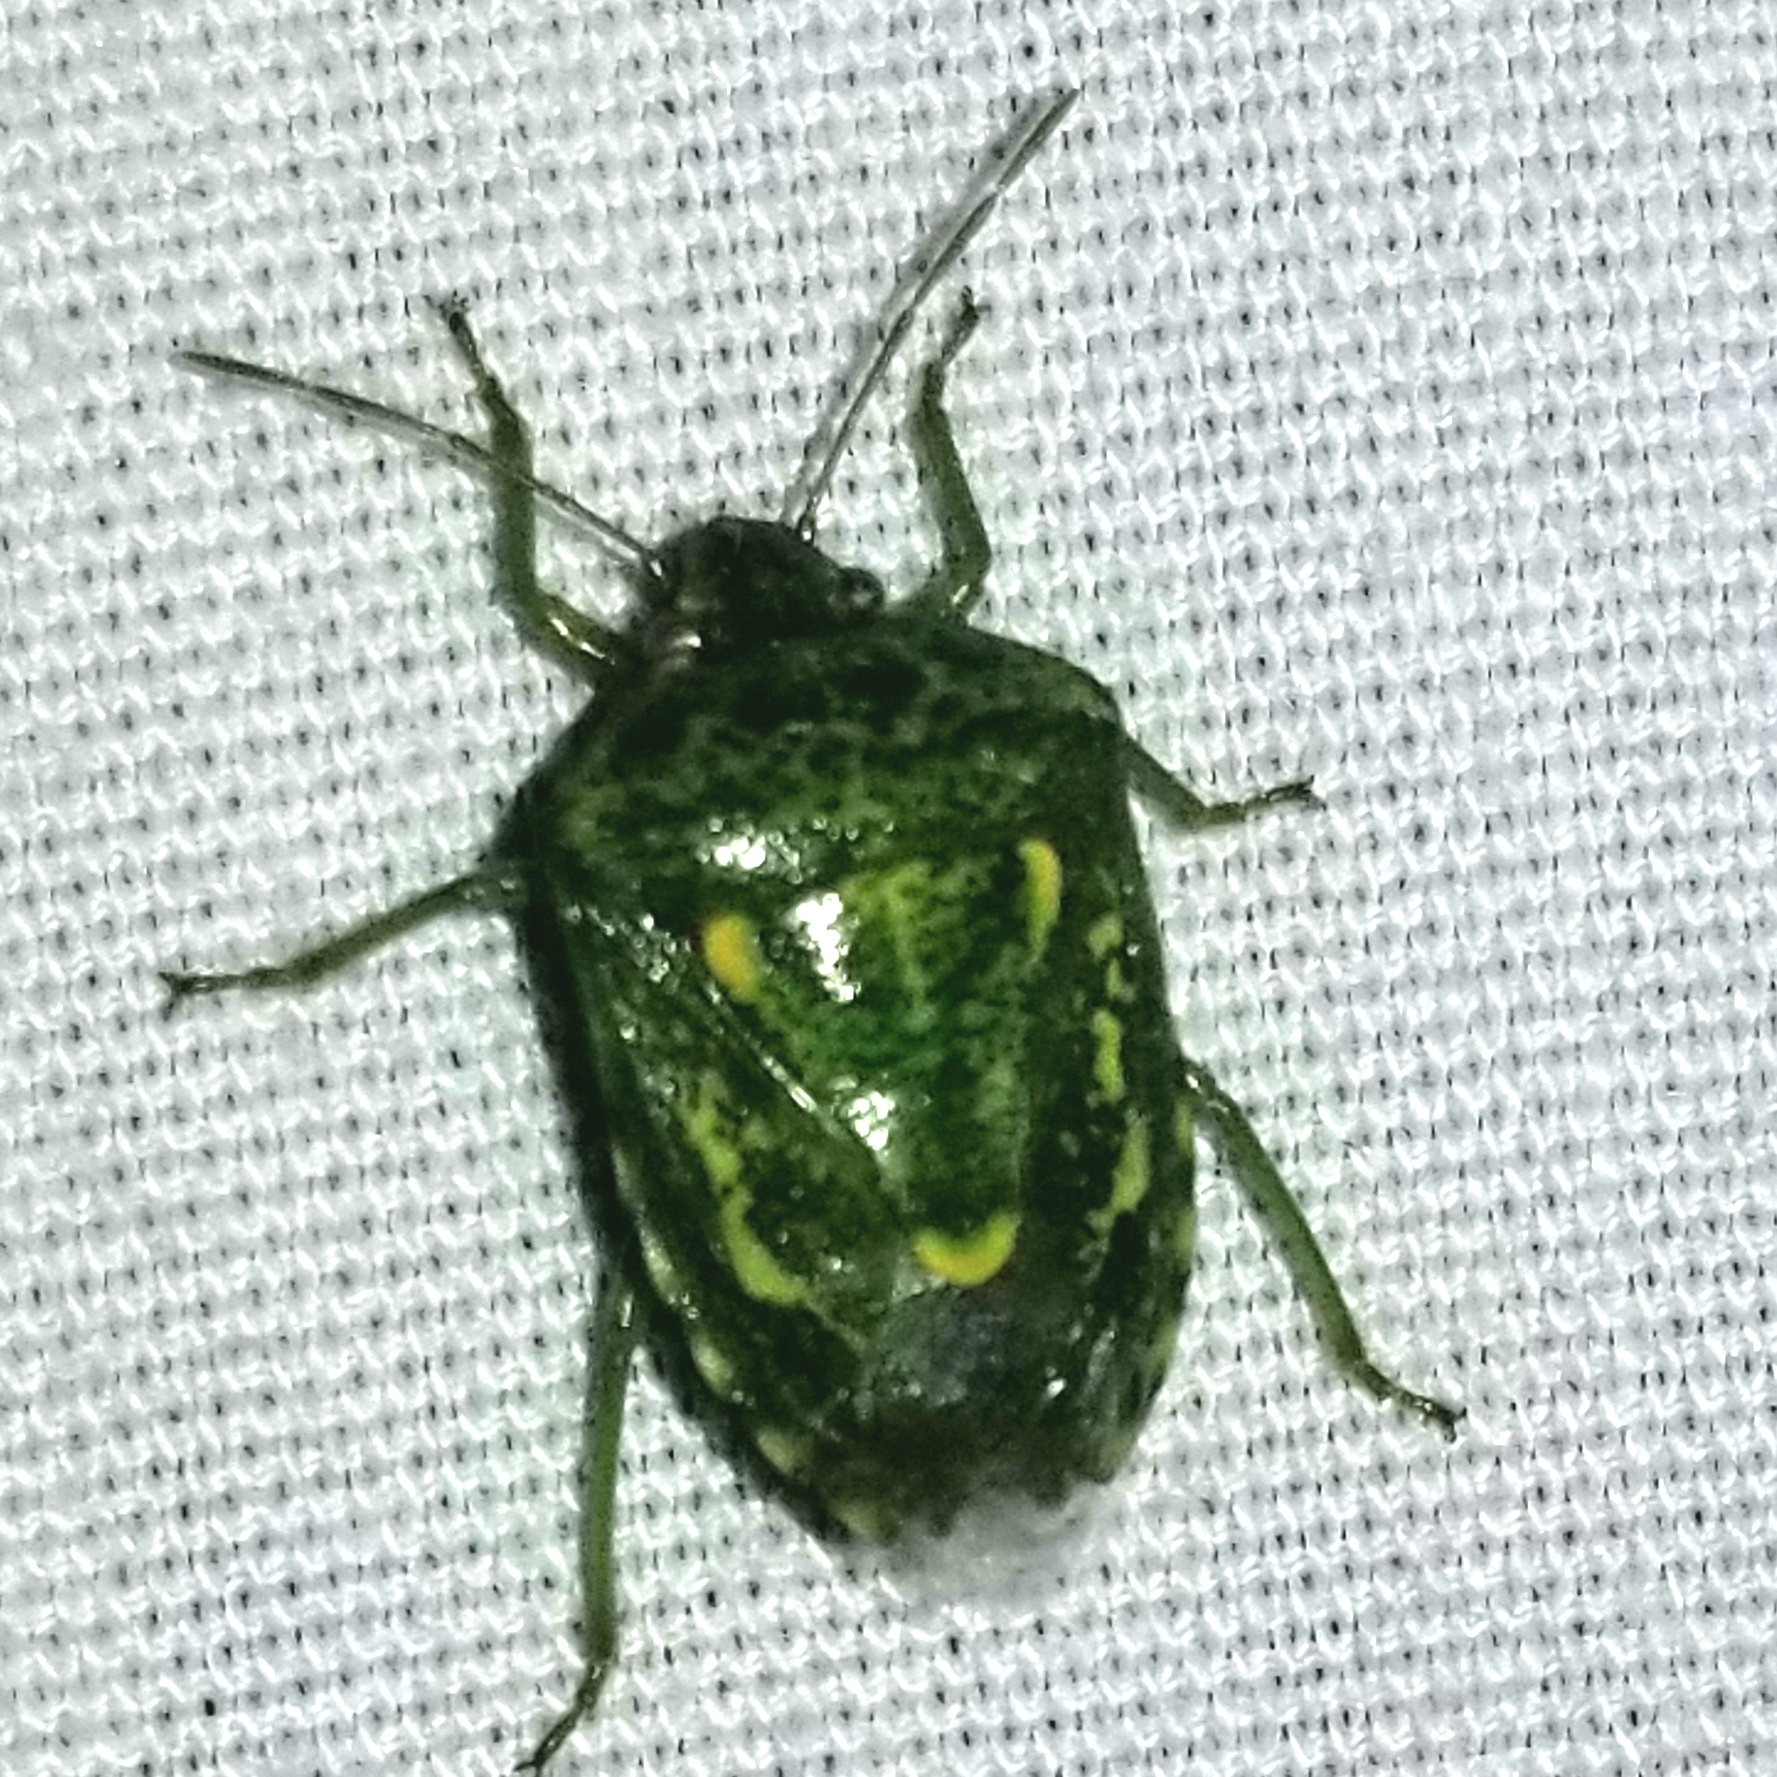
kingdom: Animalia
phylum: Arthropoda
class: Insecta
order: Hemiptera
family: Pentatomidae
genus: Banasa
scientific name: Banasa euchlora
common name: Cedar berry bug
